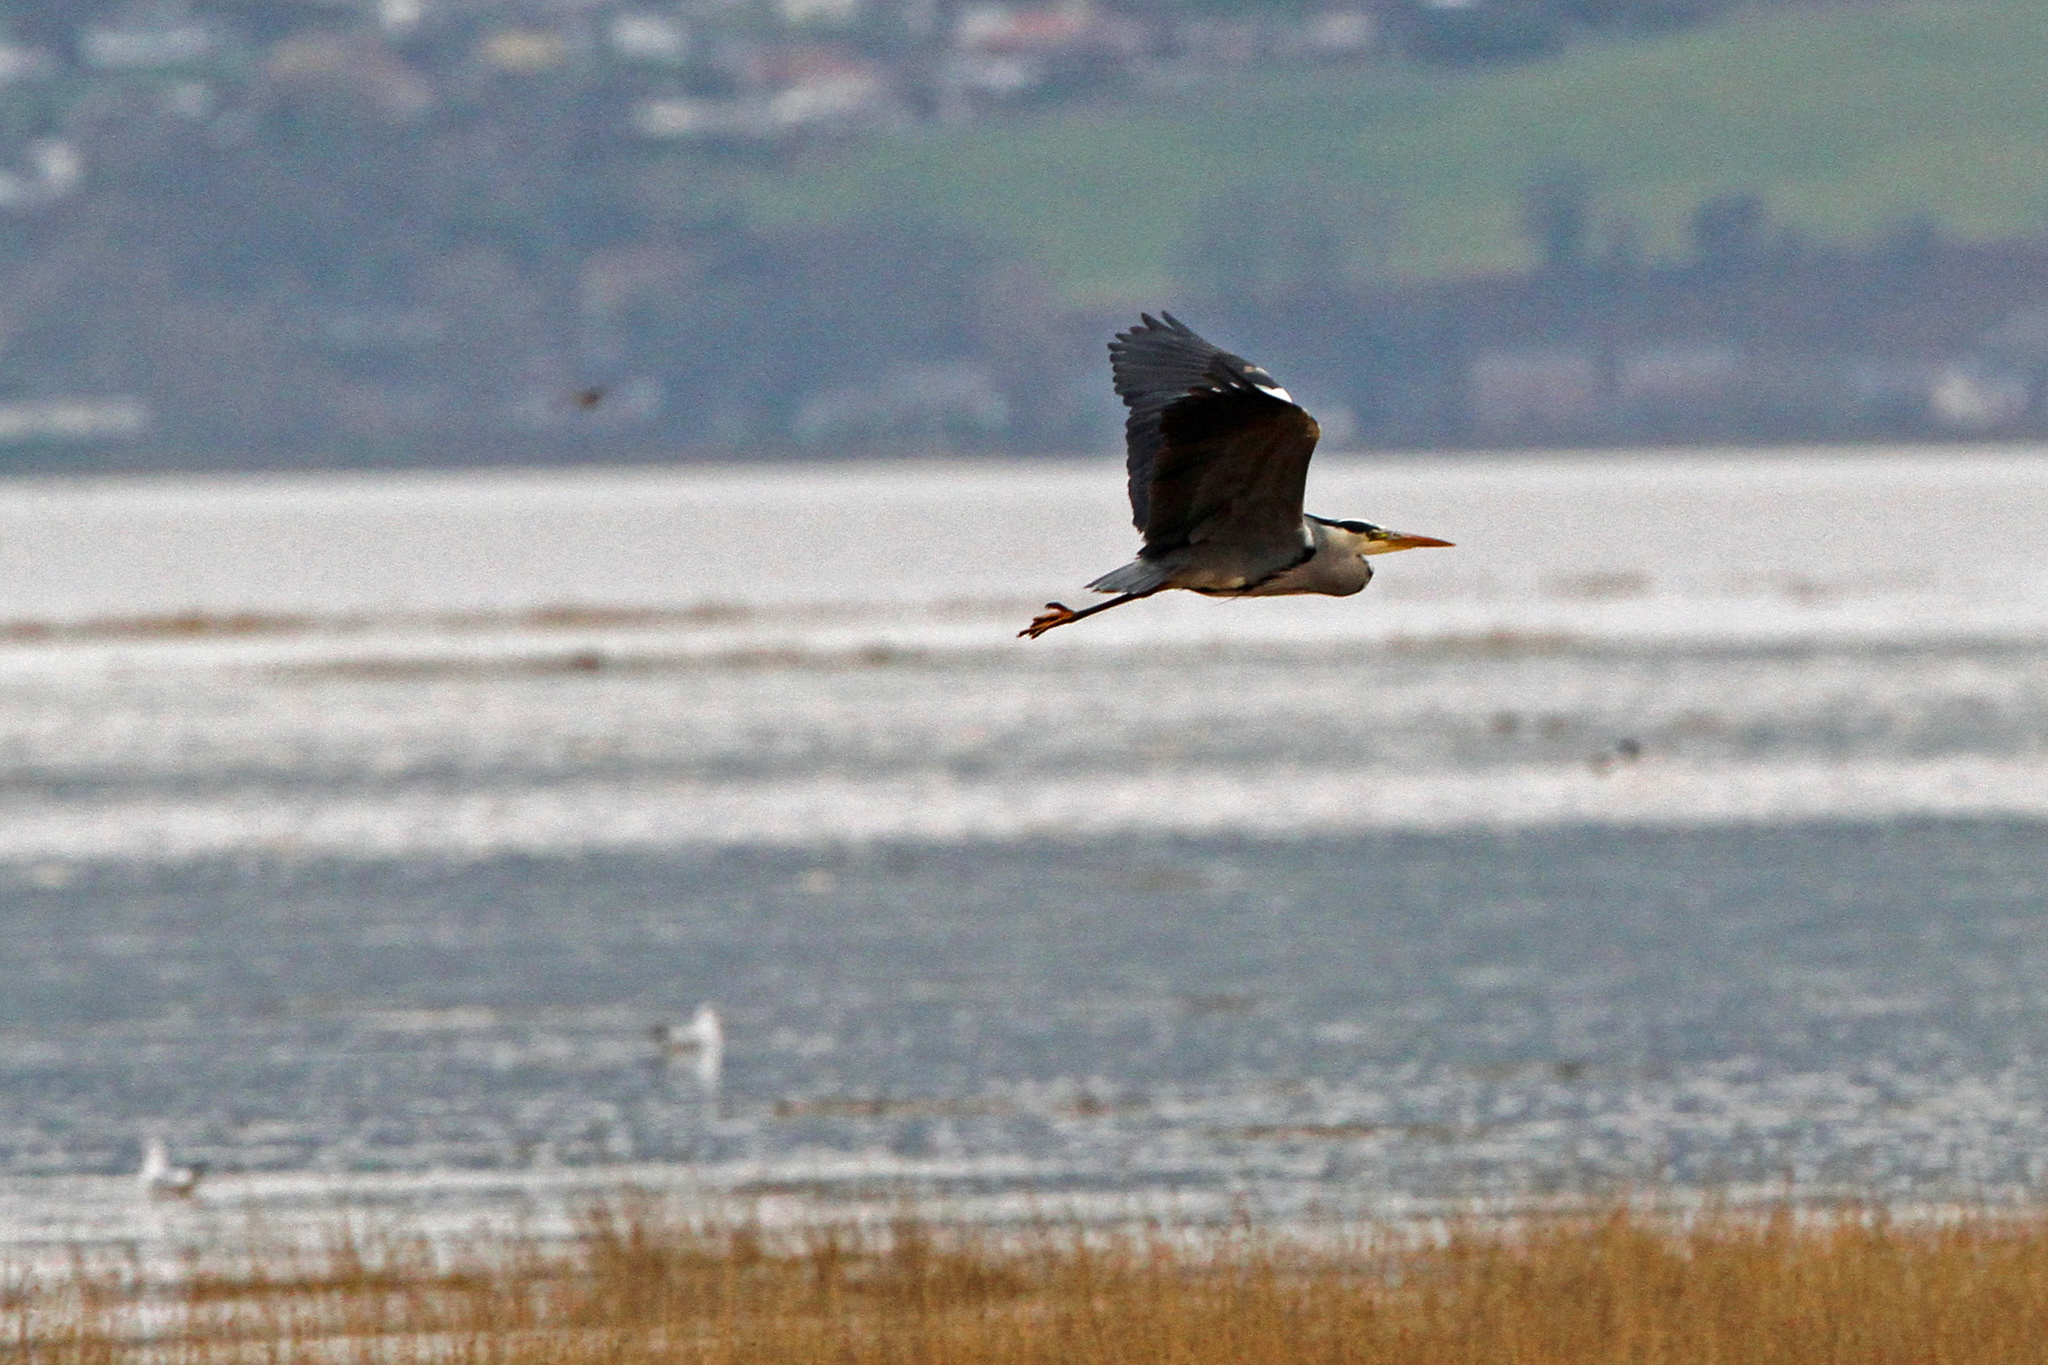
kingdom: Animalia
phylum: Chordata
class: Aves
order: Pelecaniformes
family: Ardeidae
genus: Ardea
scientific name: Ardea cinerea
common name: Grey heron
